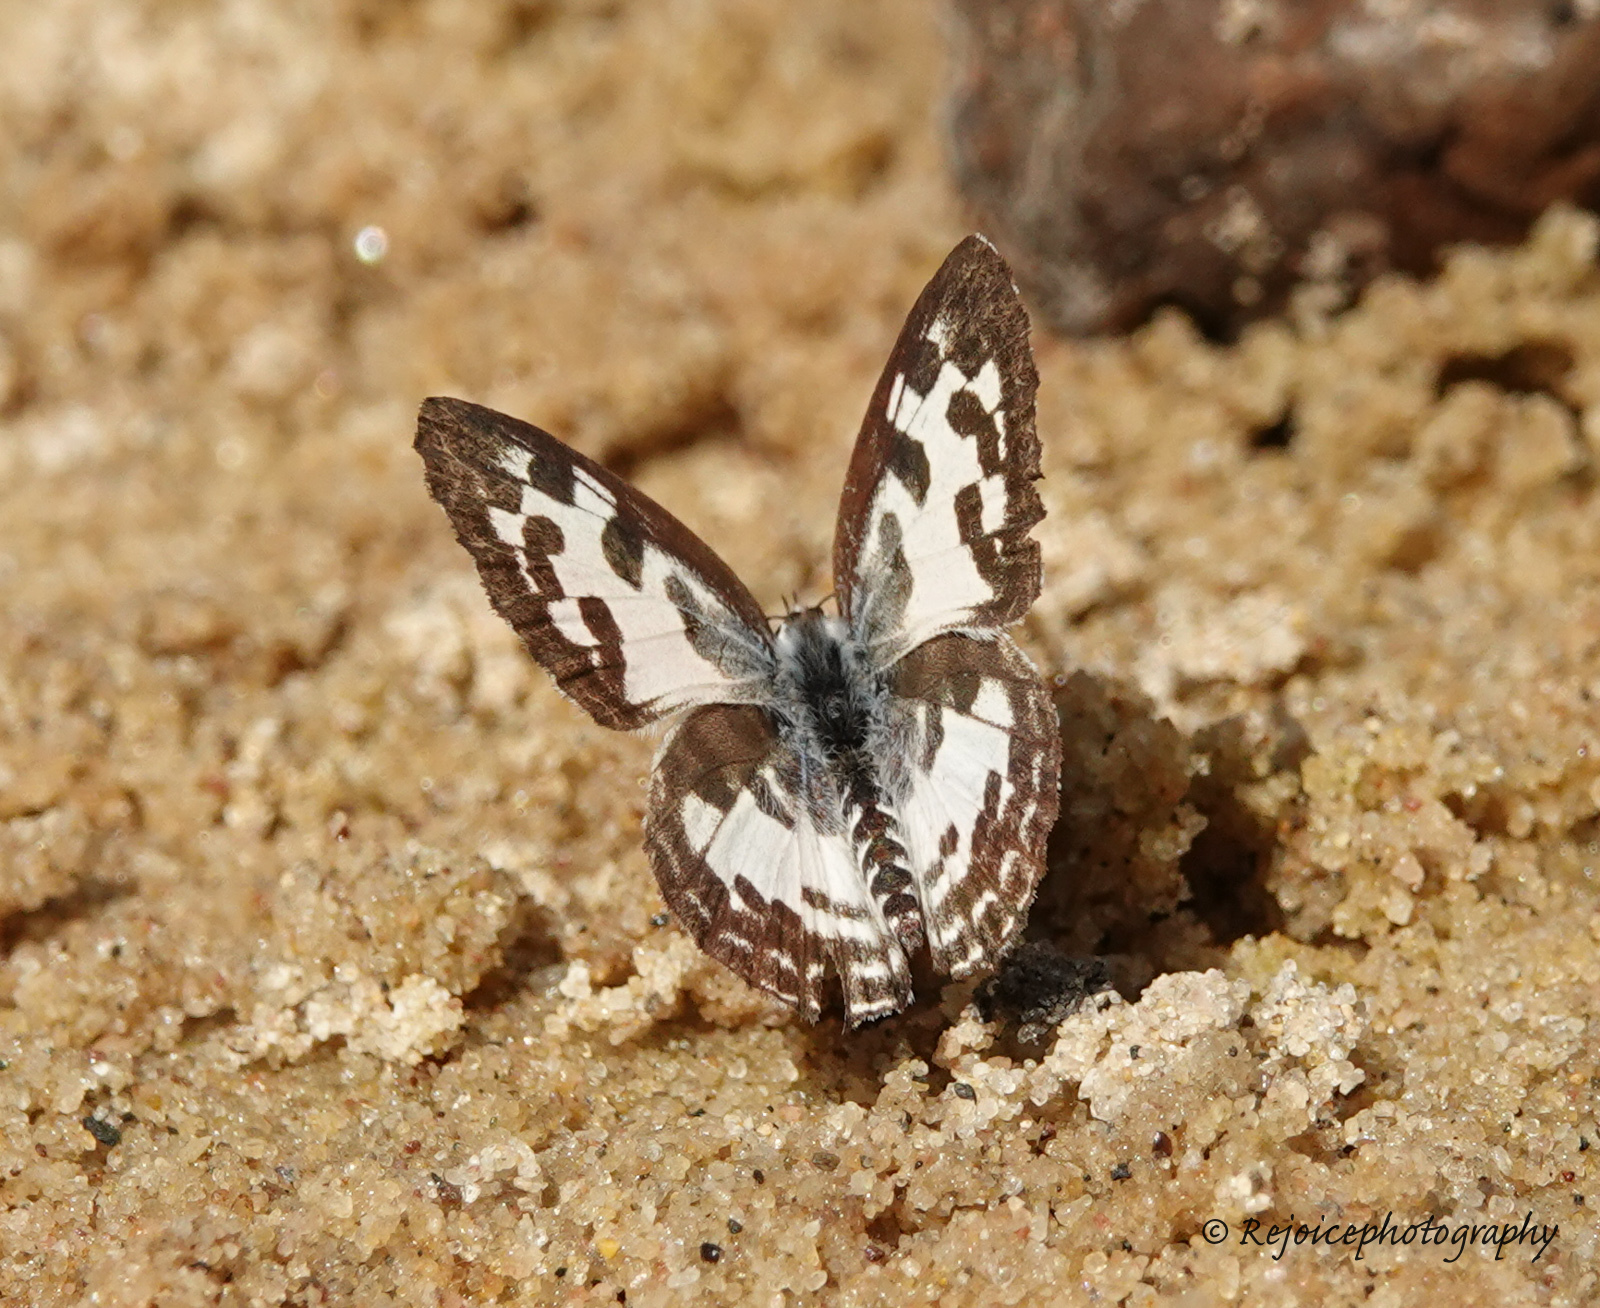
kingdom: Animalia
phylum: Arthropoda
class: Insecta
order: Lepidoptera
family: Lycaenidae
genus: Castalius
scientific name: Castalius rosimon
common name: Common pierrot
